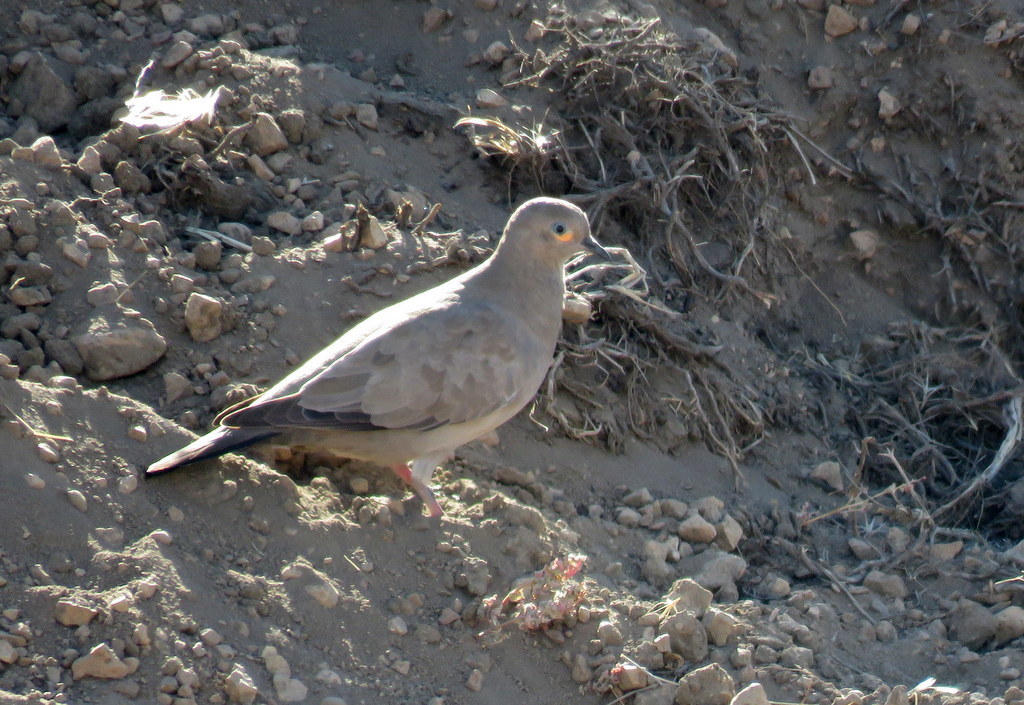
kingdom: Animalia
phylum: Chordata
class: Aves
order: Columbiformes
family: Columbidae
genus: Metriopelia
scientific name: Metriopelia melanoptera
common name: Black-winged ground dove
